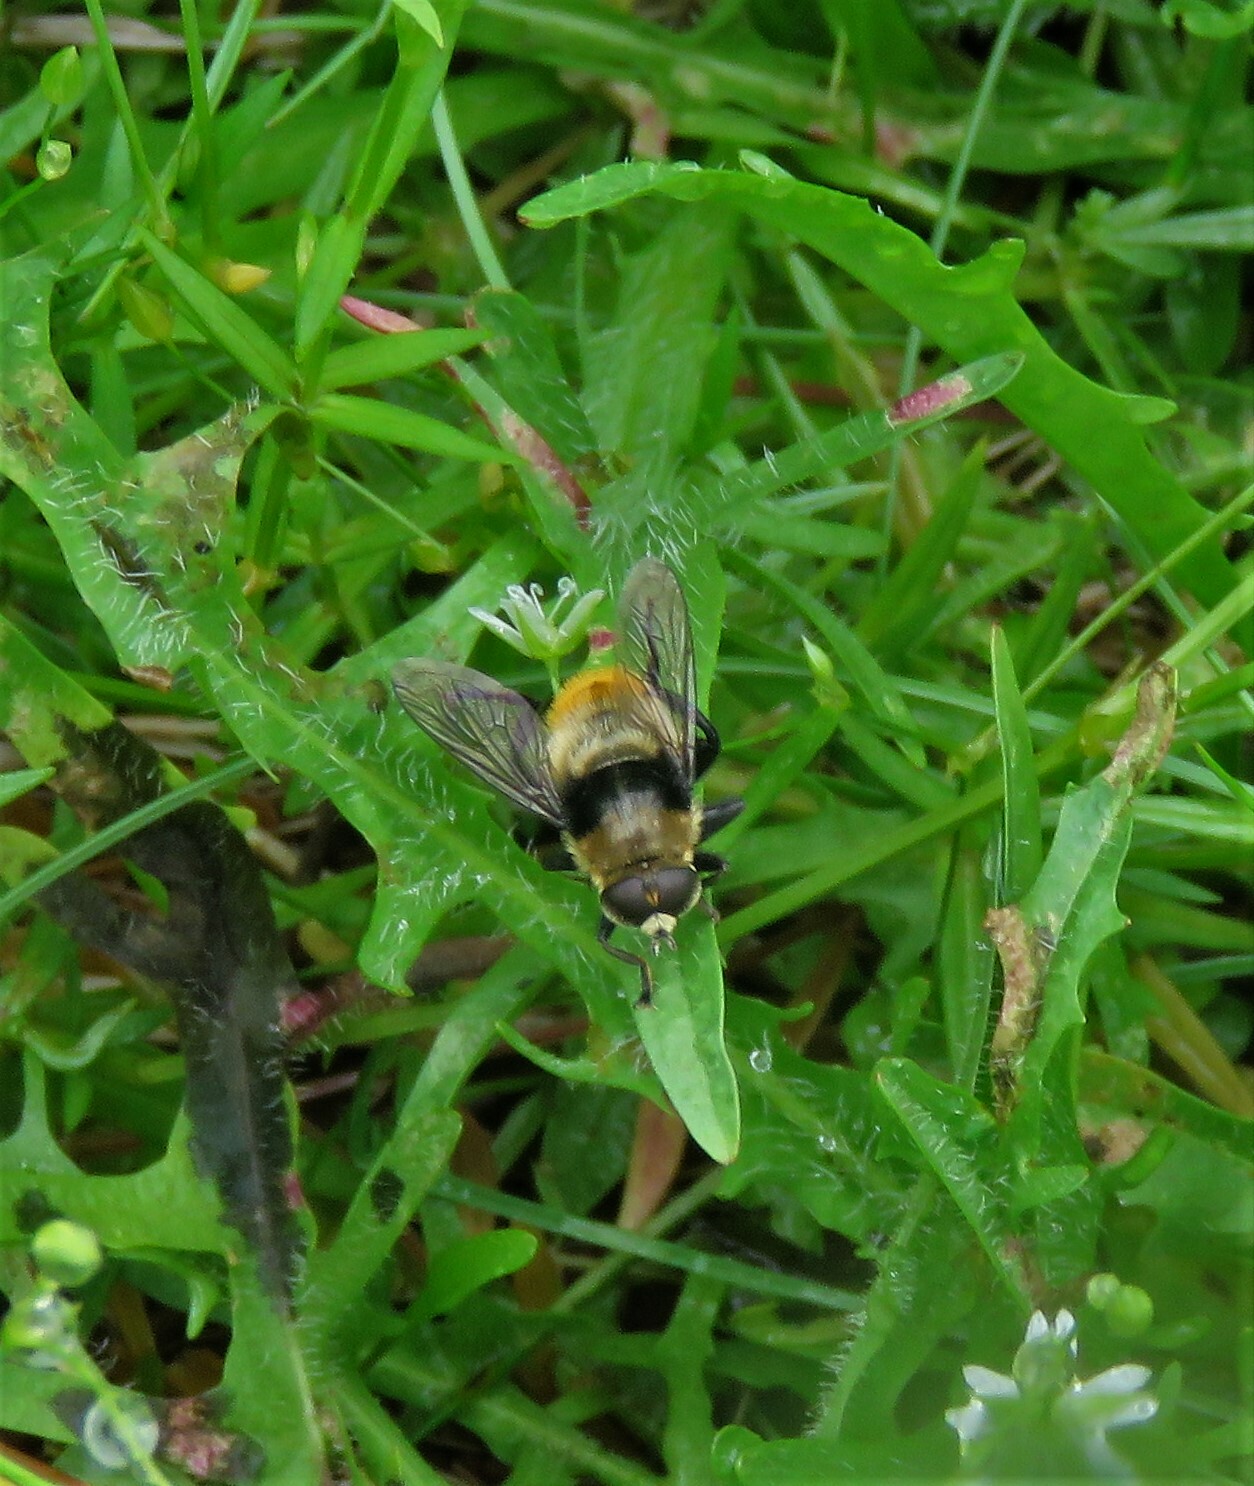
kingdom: Animalia
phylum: Arthropoda
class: Insecta
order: Diptera
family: Syrphidae
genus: Merodon
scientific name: Merodon equestris
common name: Greater bulb-fly
